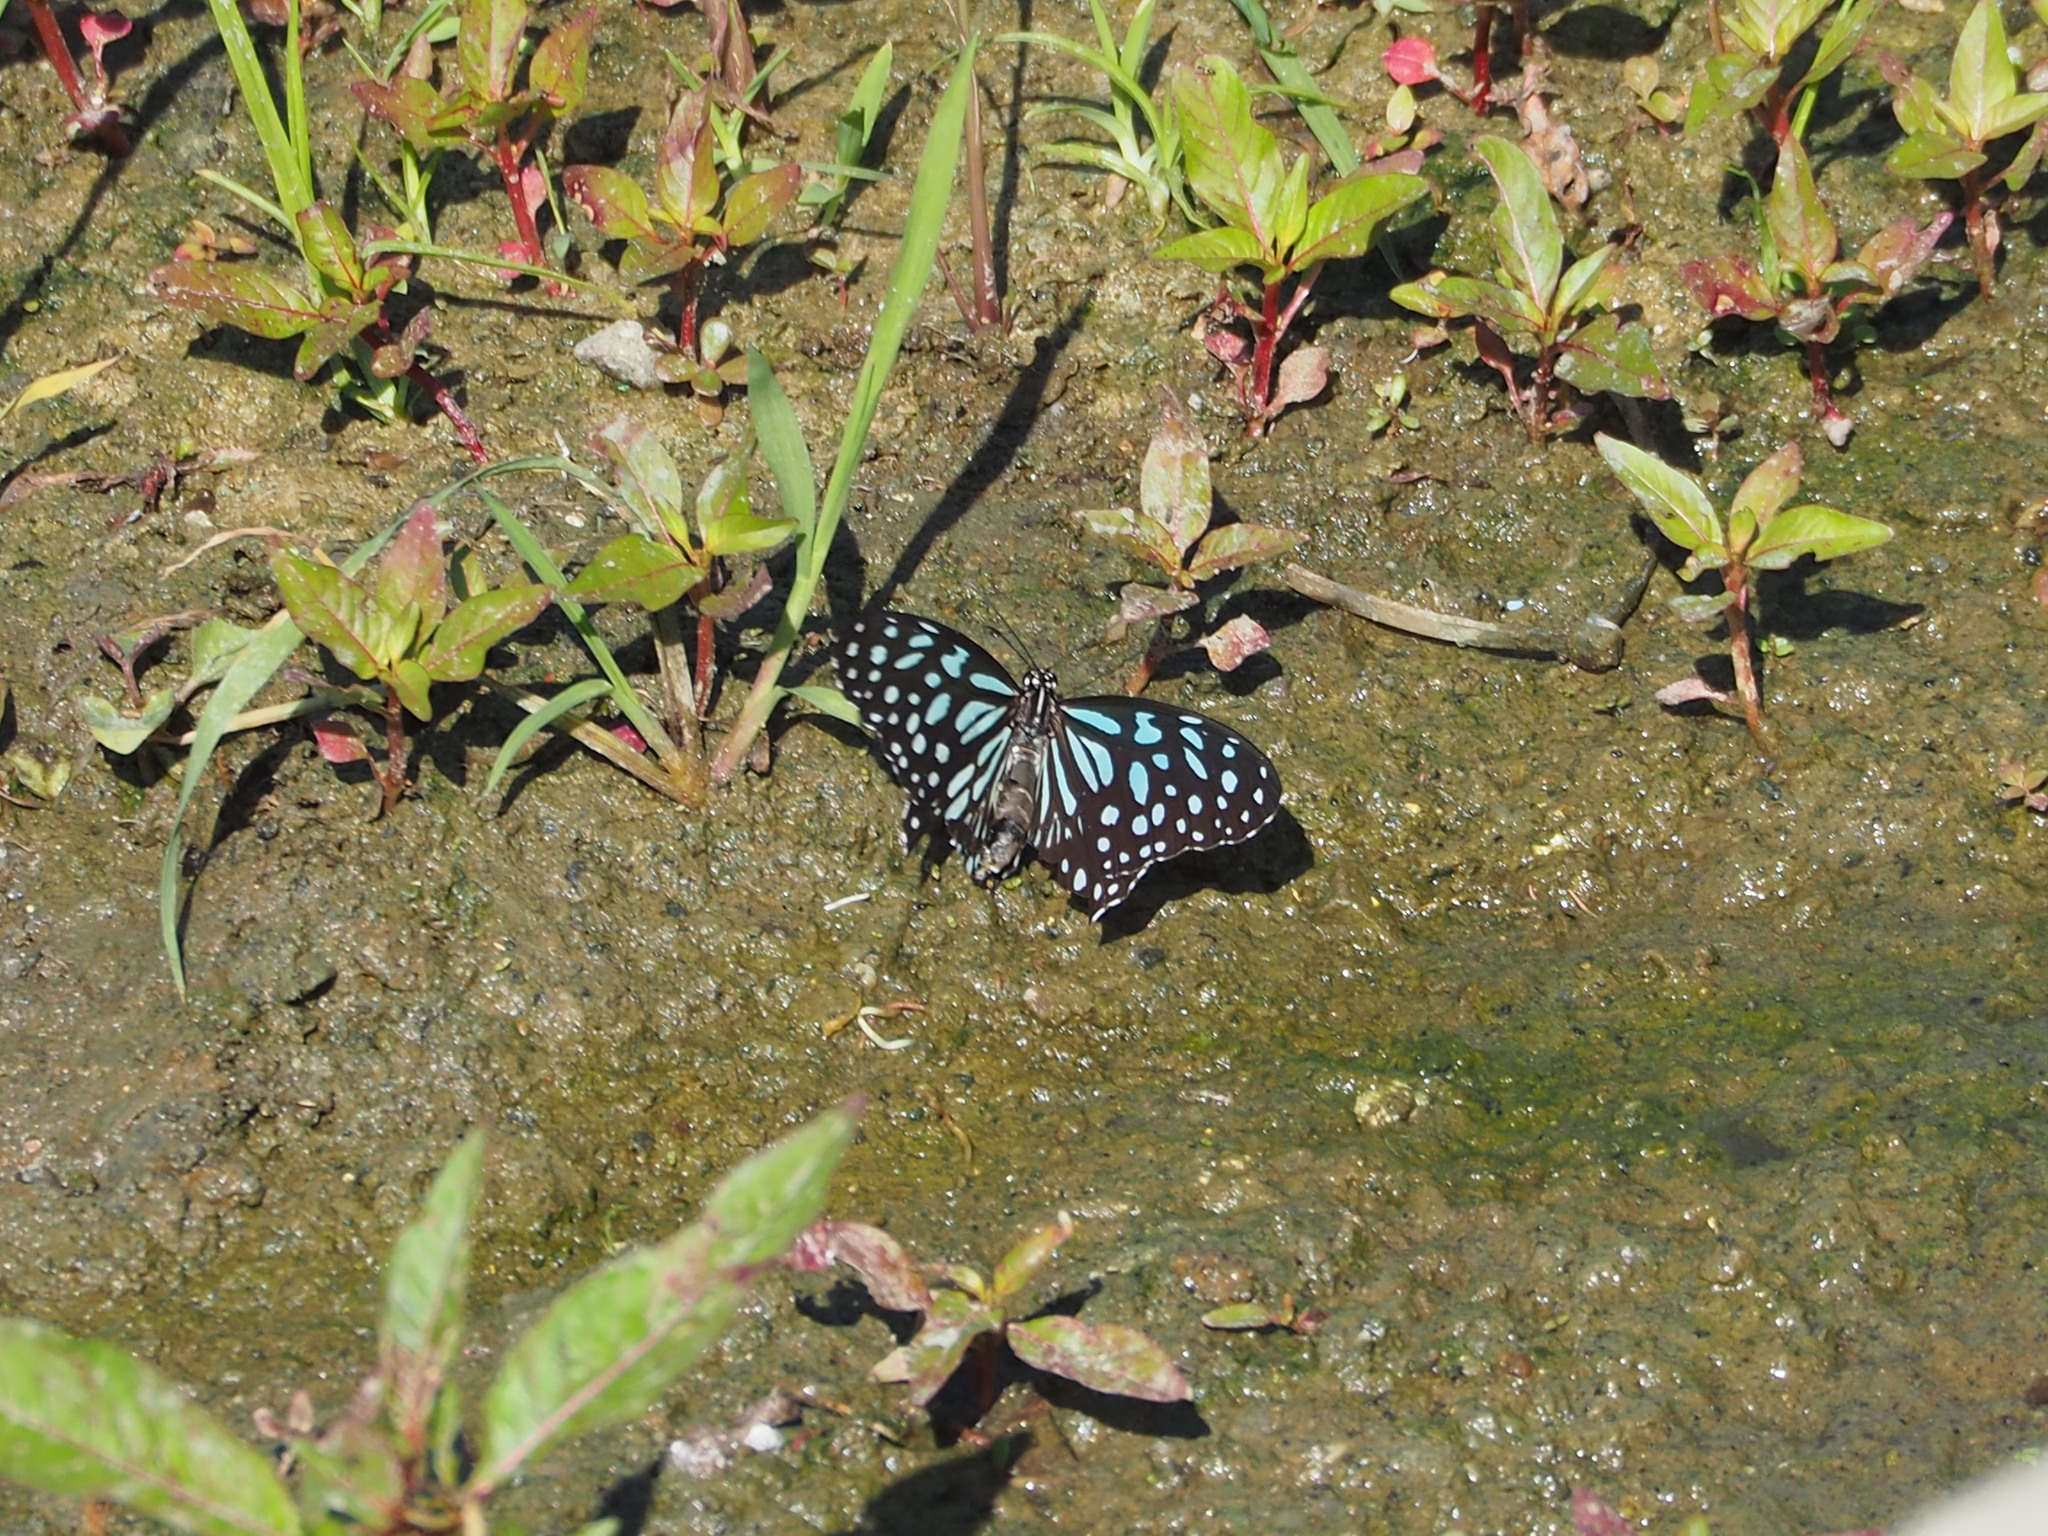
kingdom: Animalia
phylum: Arthropoda
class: Insecta
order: Lepidoptera
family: Nymphalidae
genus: Tirumala
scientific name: Tirumala limniace
